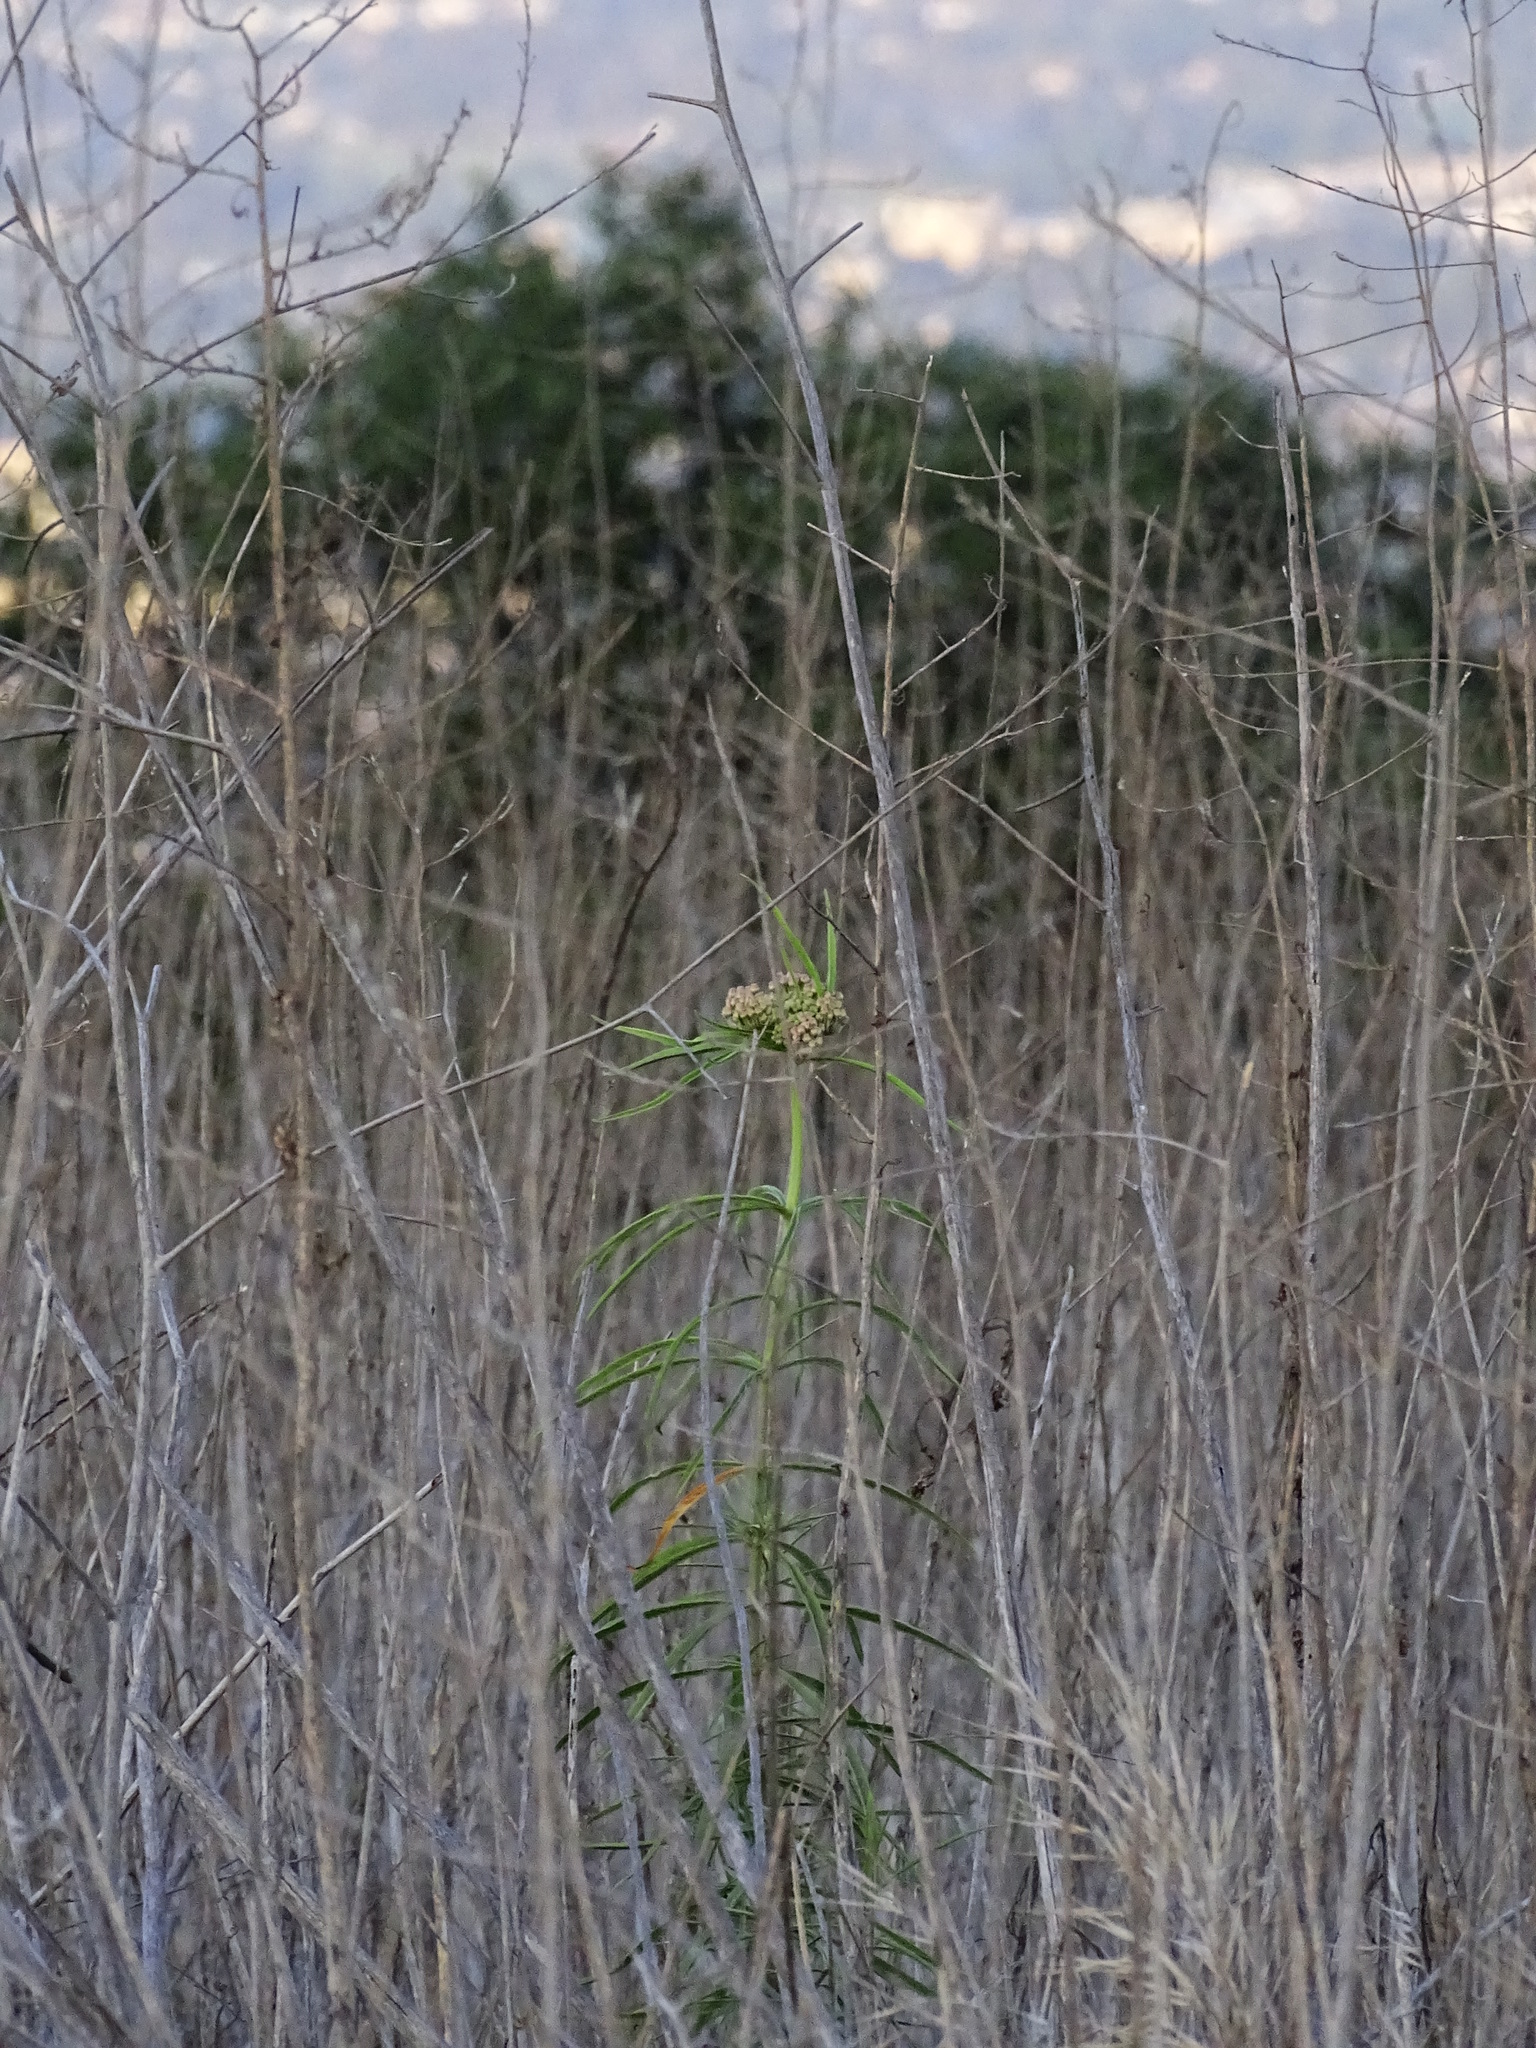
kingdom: Plantae
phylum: Tracheophyta
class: Magnoliopsida
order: Gentianales
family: Apocynaceae
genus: Asclepias
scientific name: Asclepias fascicularis
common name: Mexican milkweed
